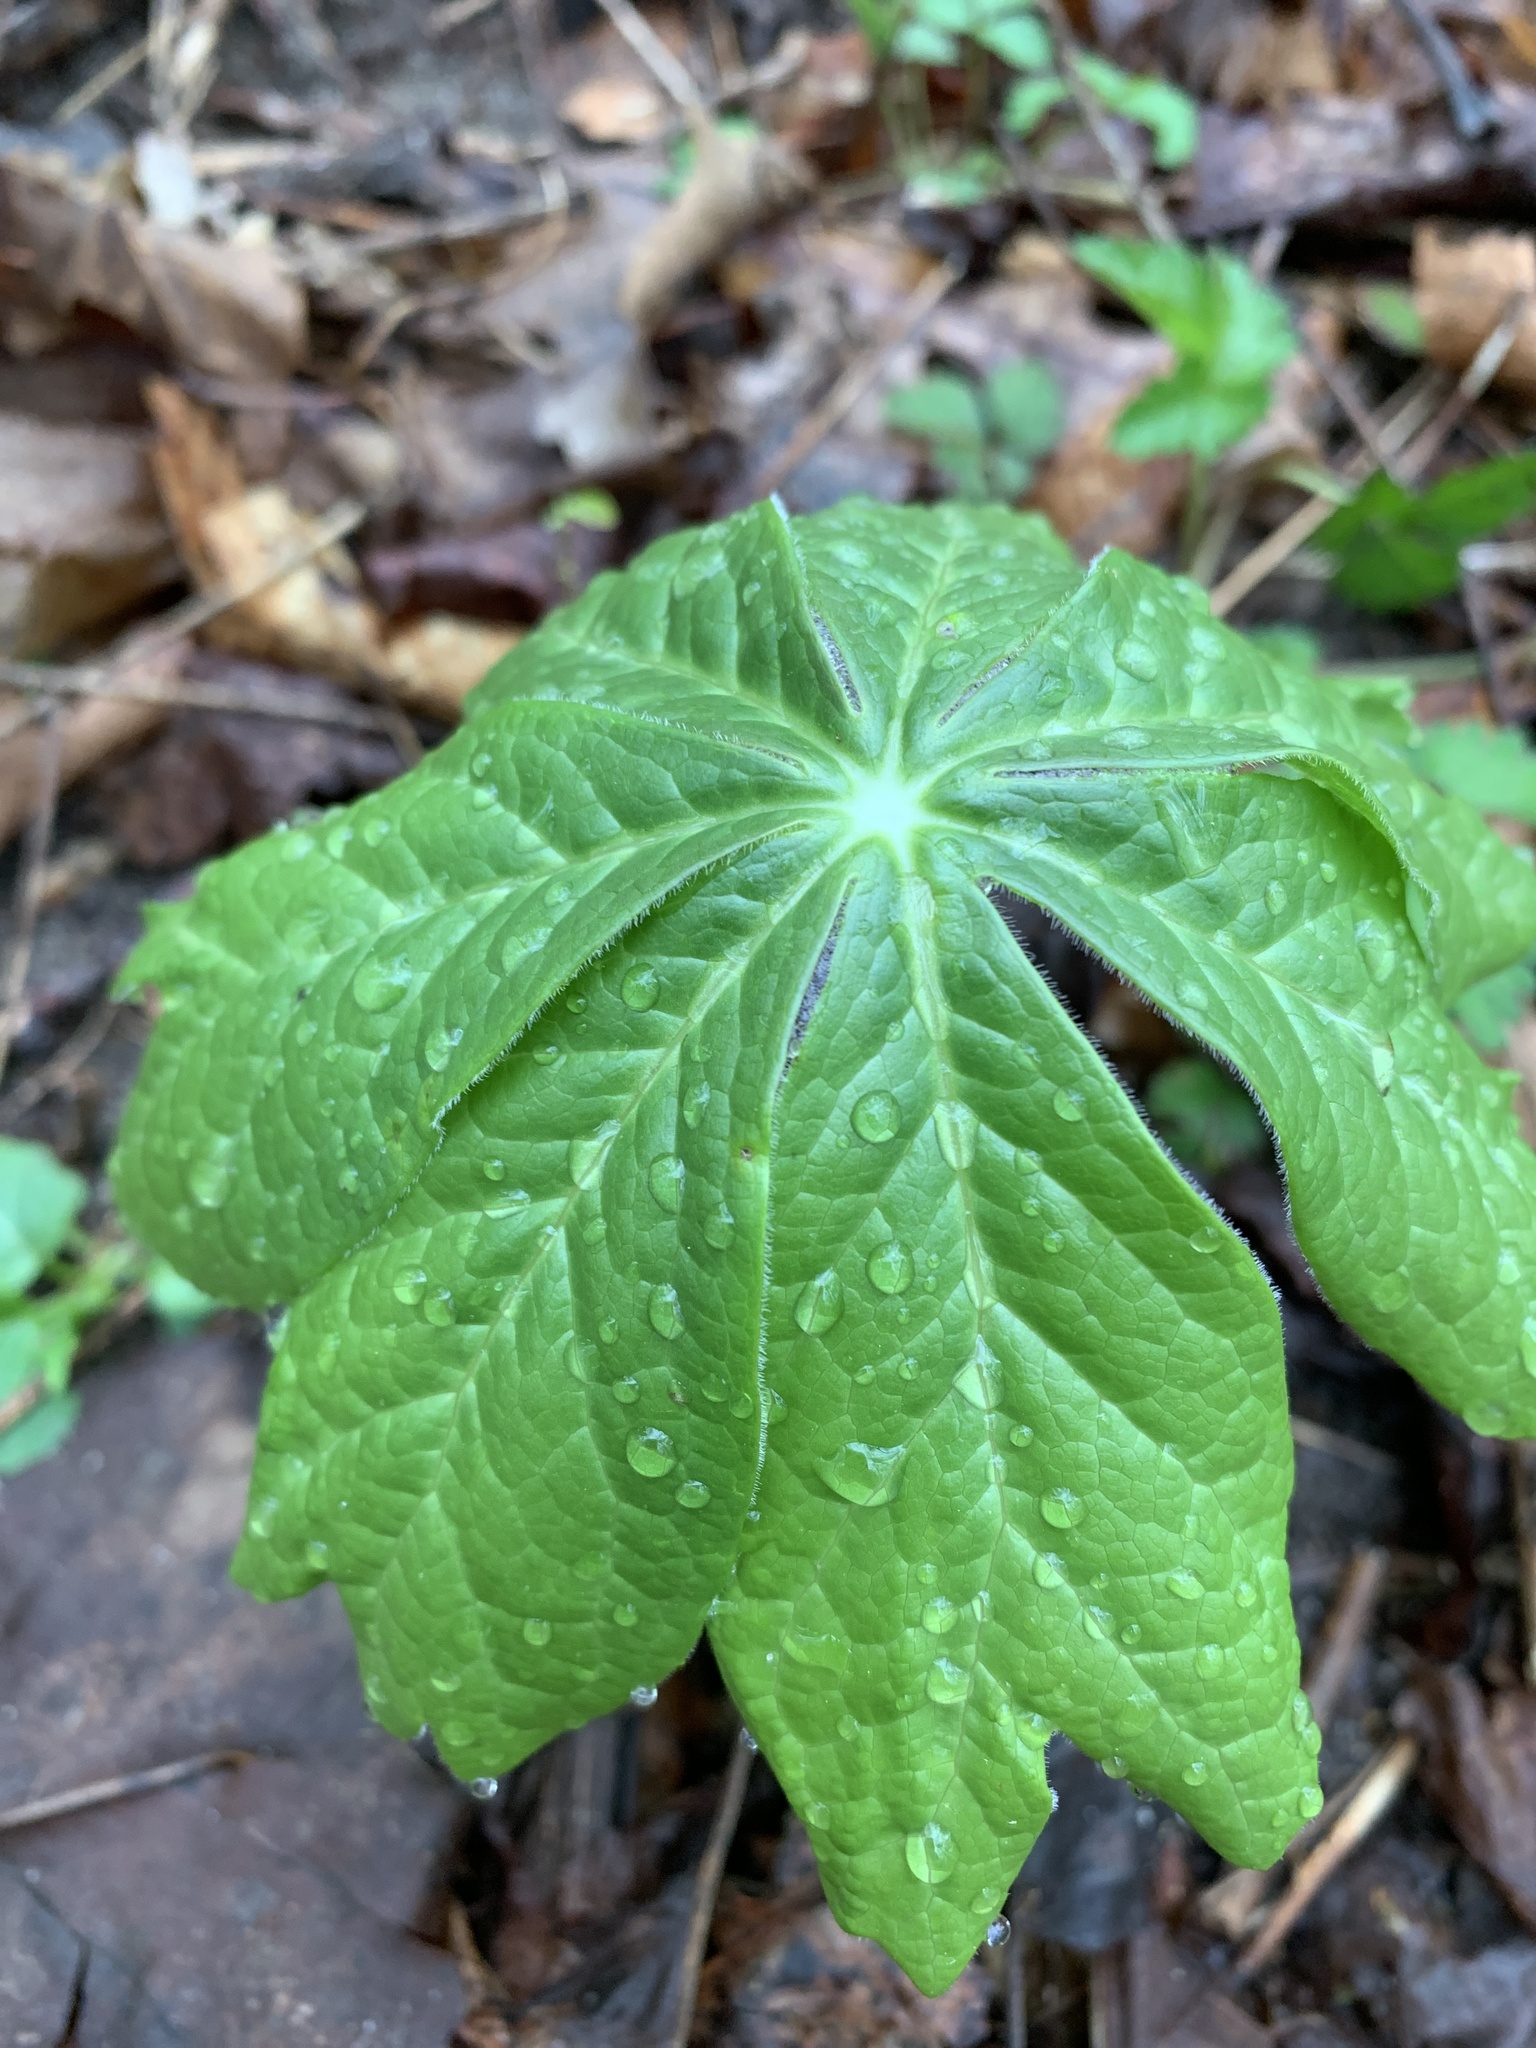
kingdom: Plantae
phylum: Tracheophyta
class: Magnoliopsida
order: Ranunculales
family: Berberidaceae
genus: Podophyllum
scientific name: Podophyllum peltatum
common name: Wild mandrake
